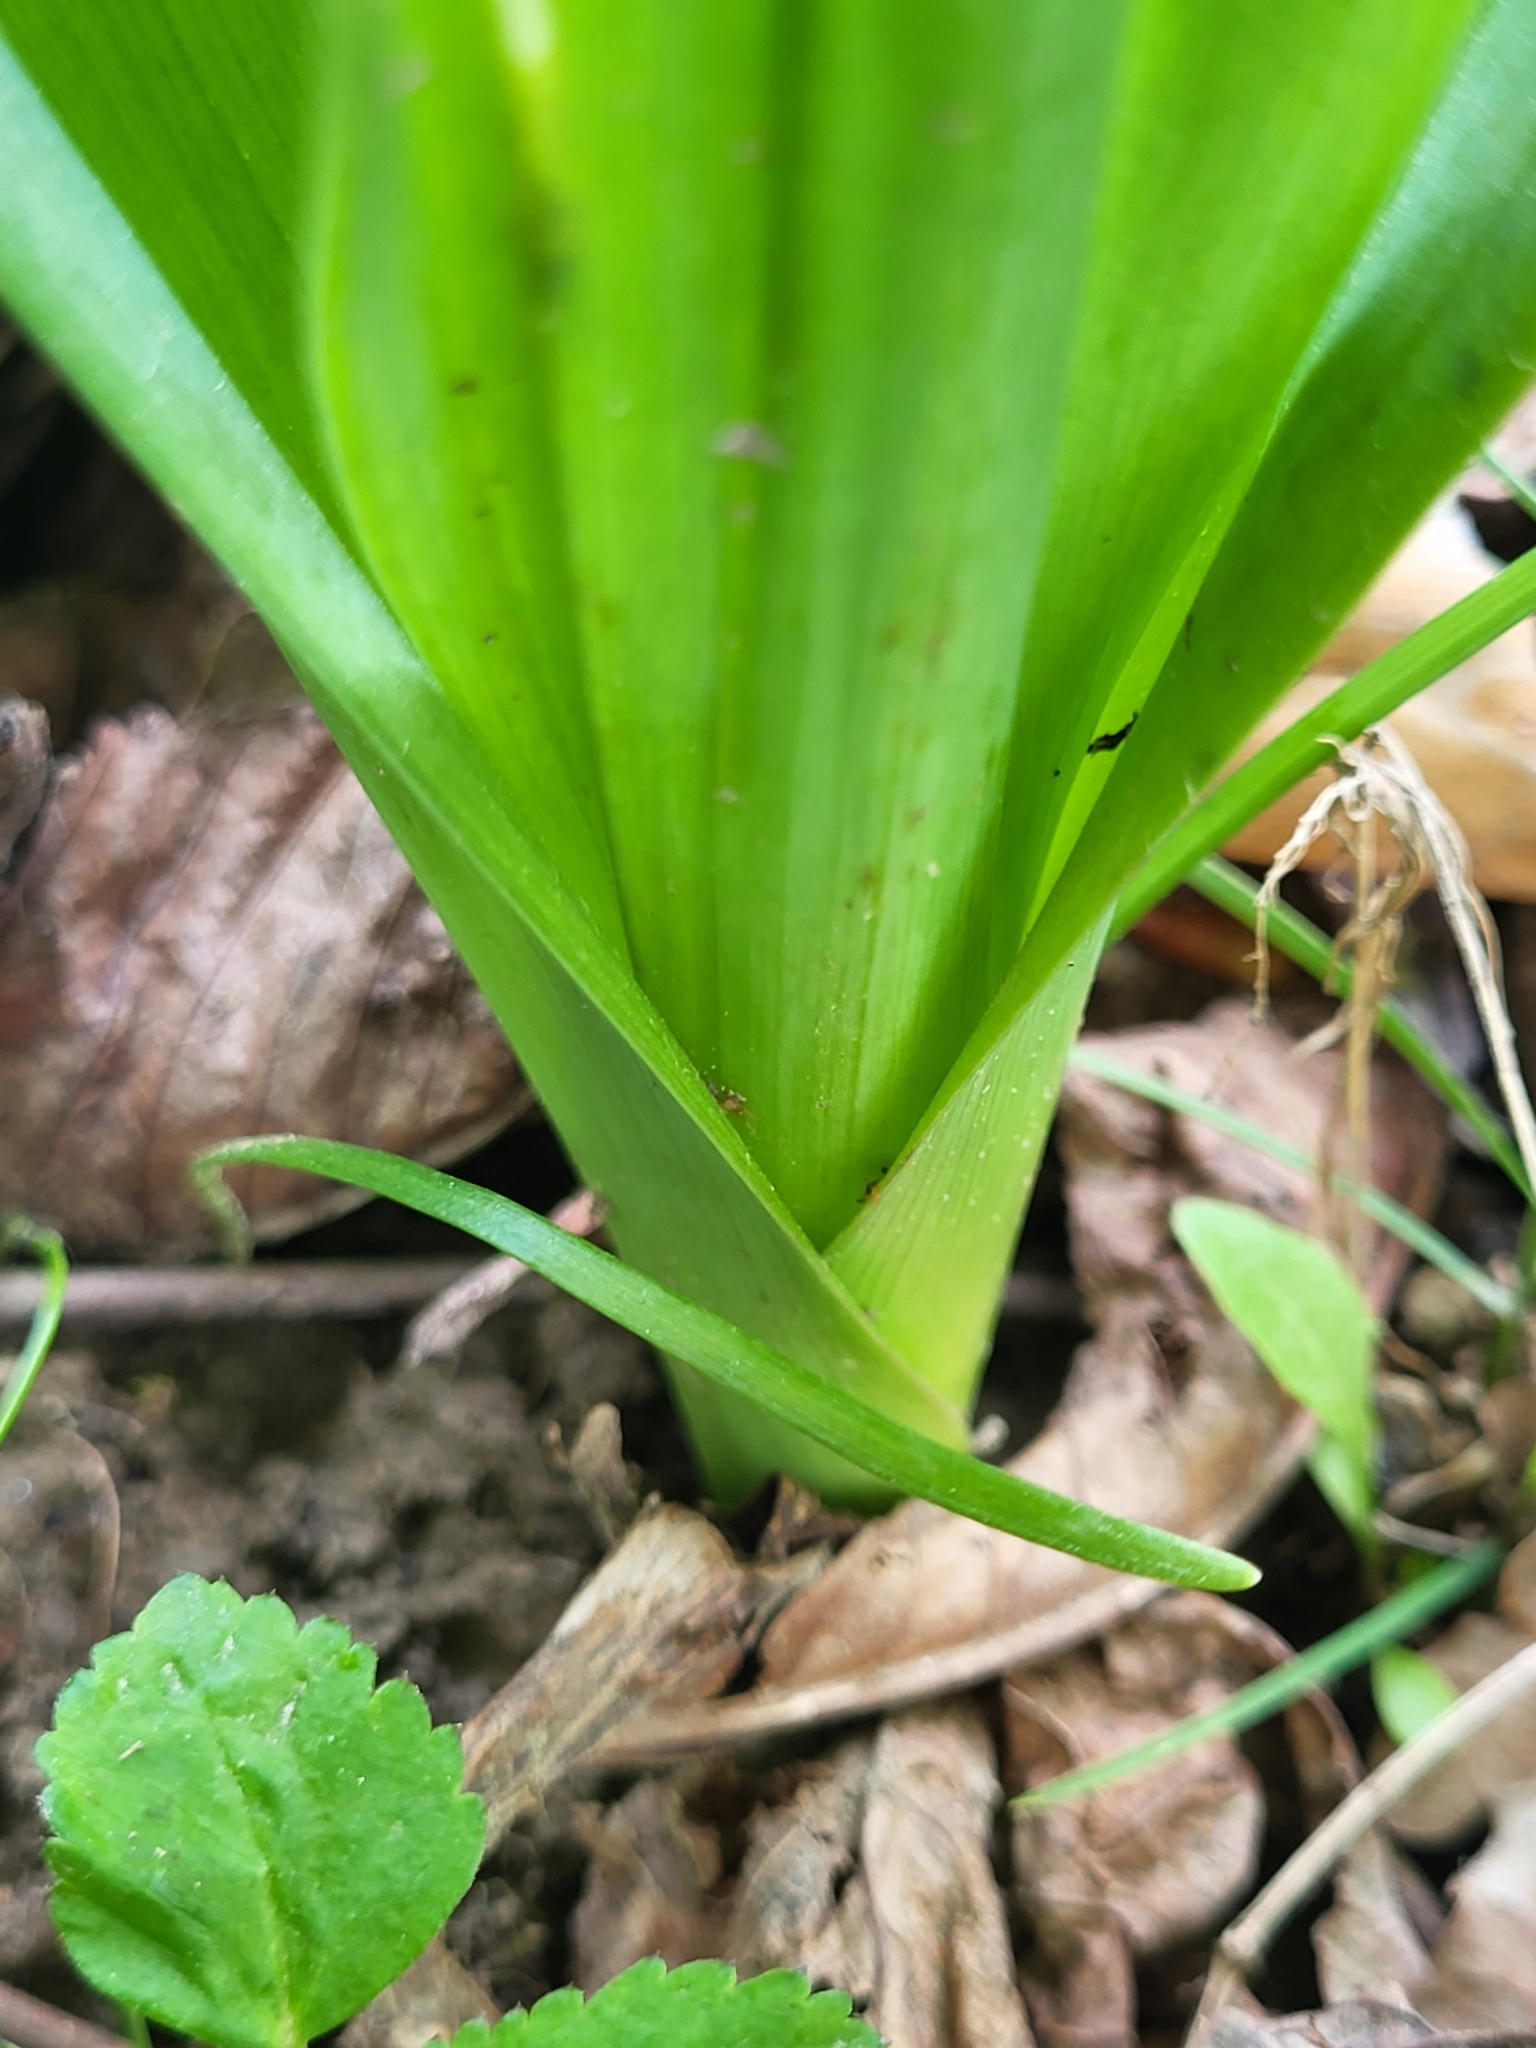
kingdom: Plantae
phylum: Tracheophyta
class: Liliopsida
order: Liliales
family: Colchicaceae
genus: Colchicum
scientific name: Colchicum autumnale
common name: Autumn crocus
